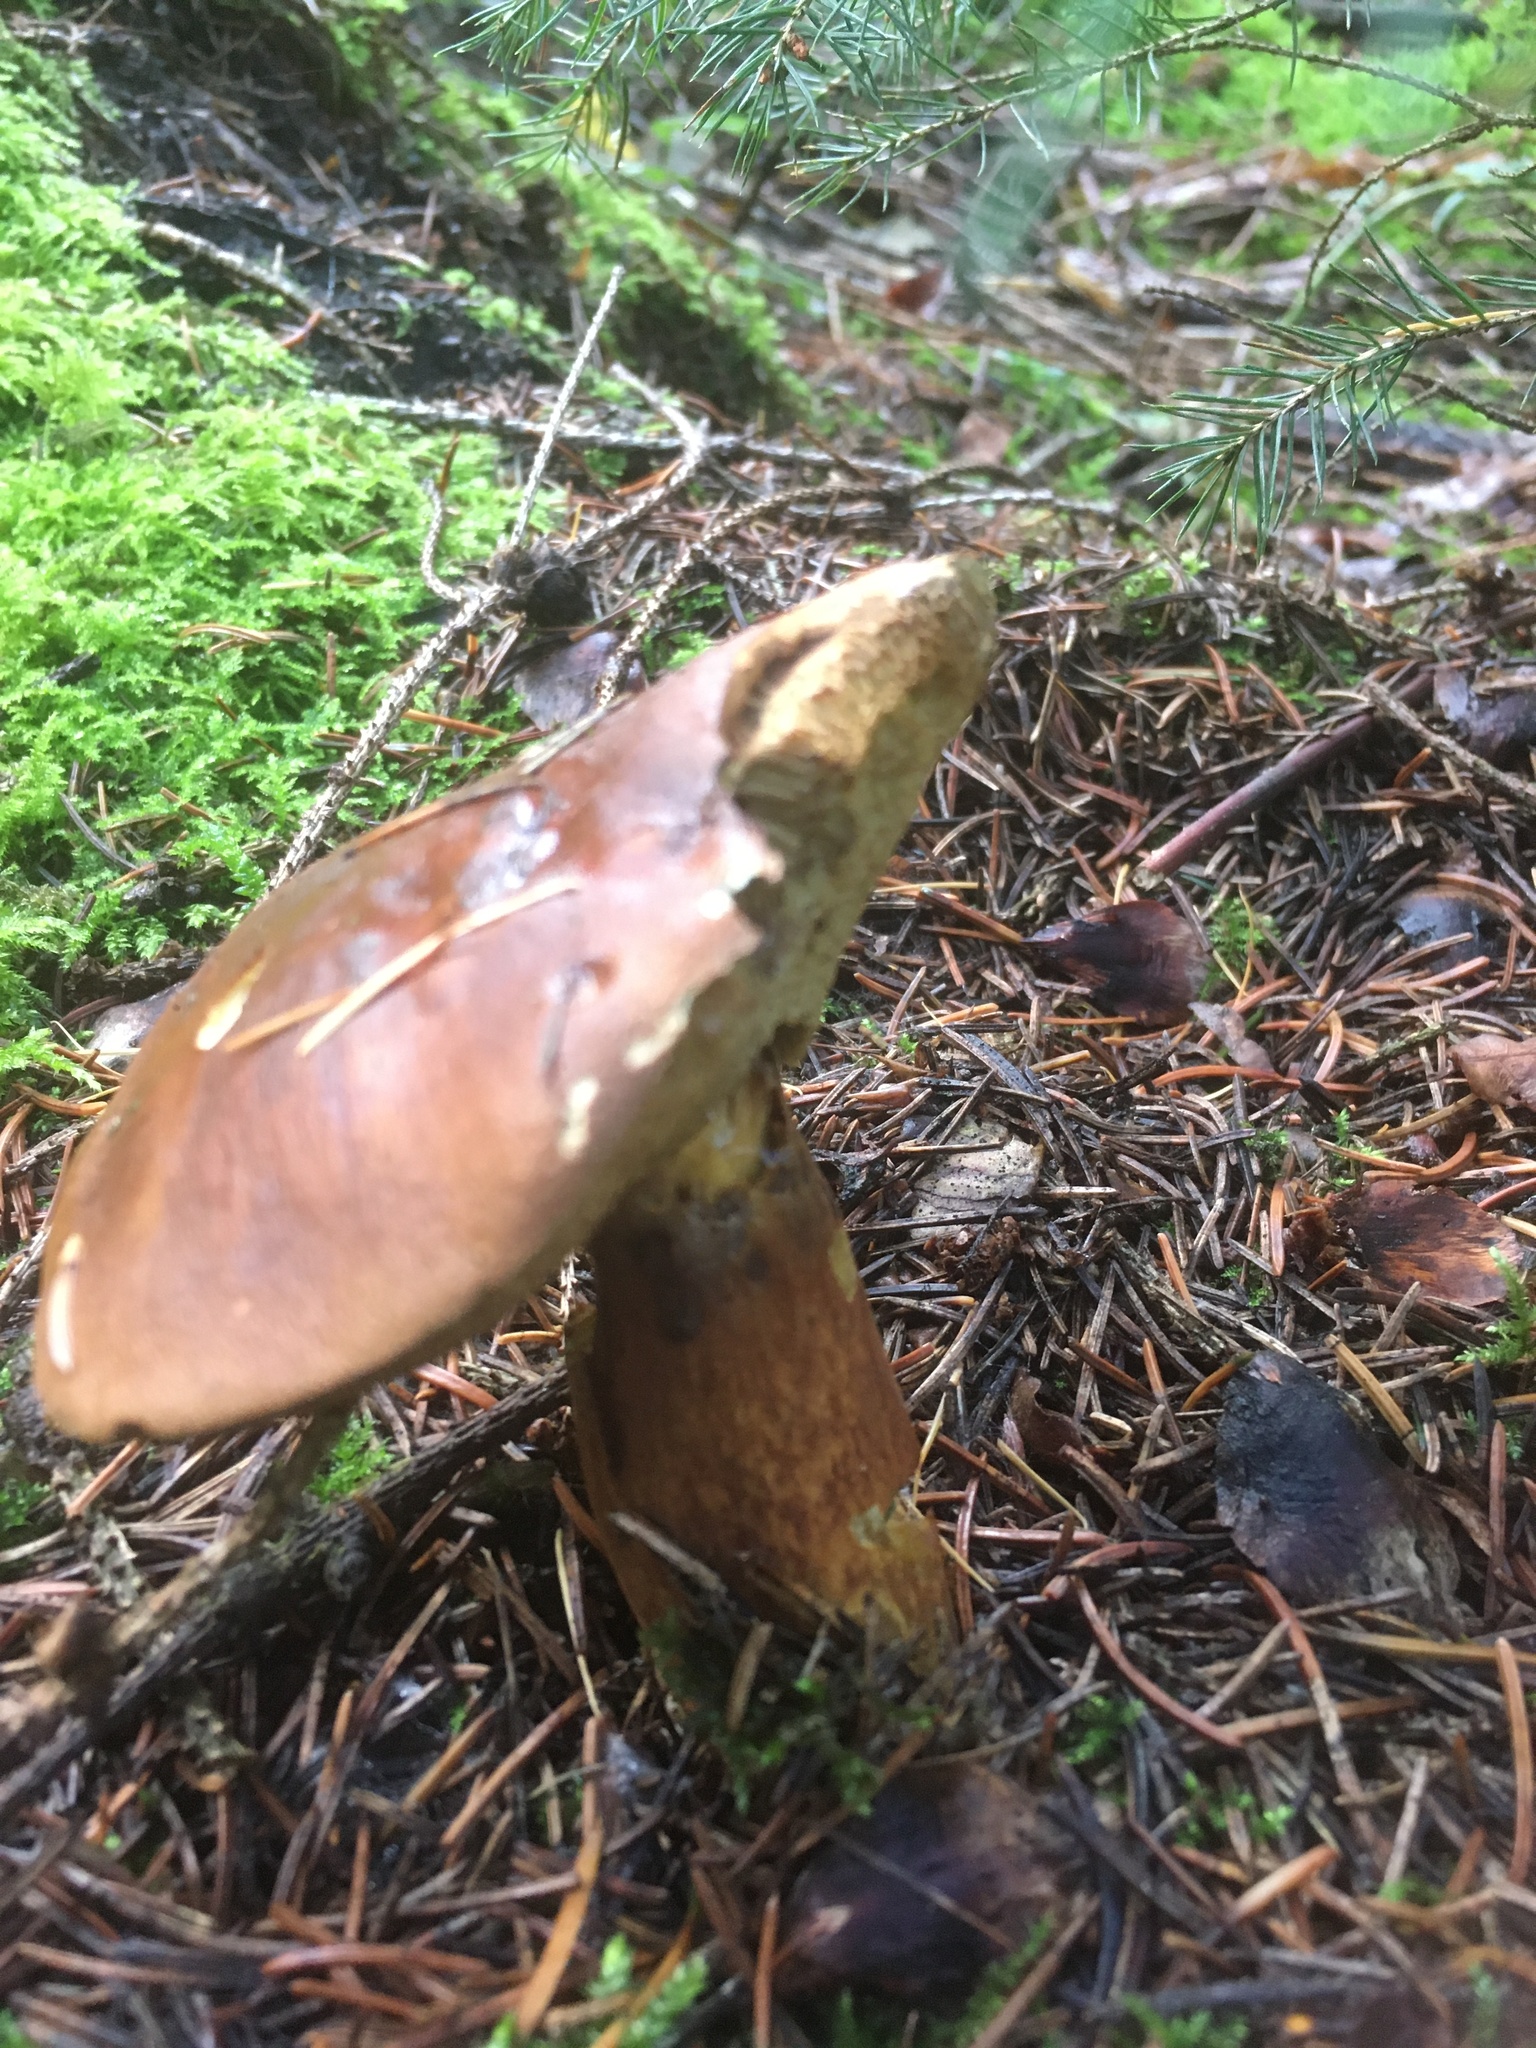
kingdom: Fungi
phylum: Basidiomycota
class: Agaricomycetes
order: Boletales
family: Boletaceae
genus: Imleria
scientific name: Imleria badia
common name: Bay bolete
